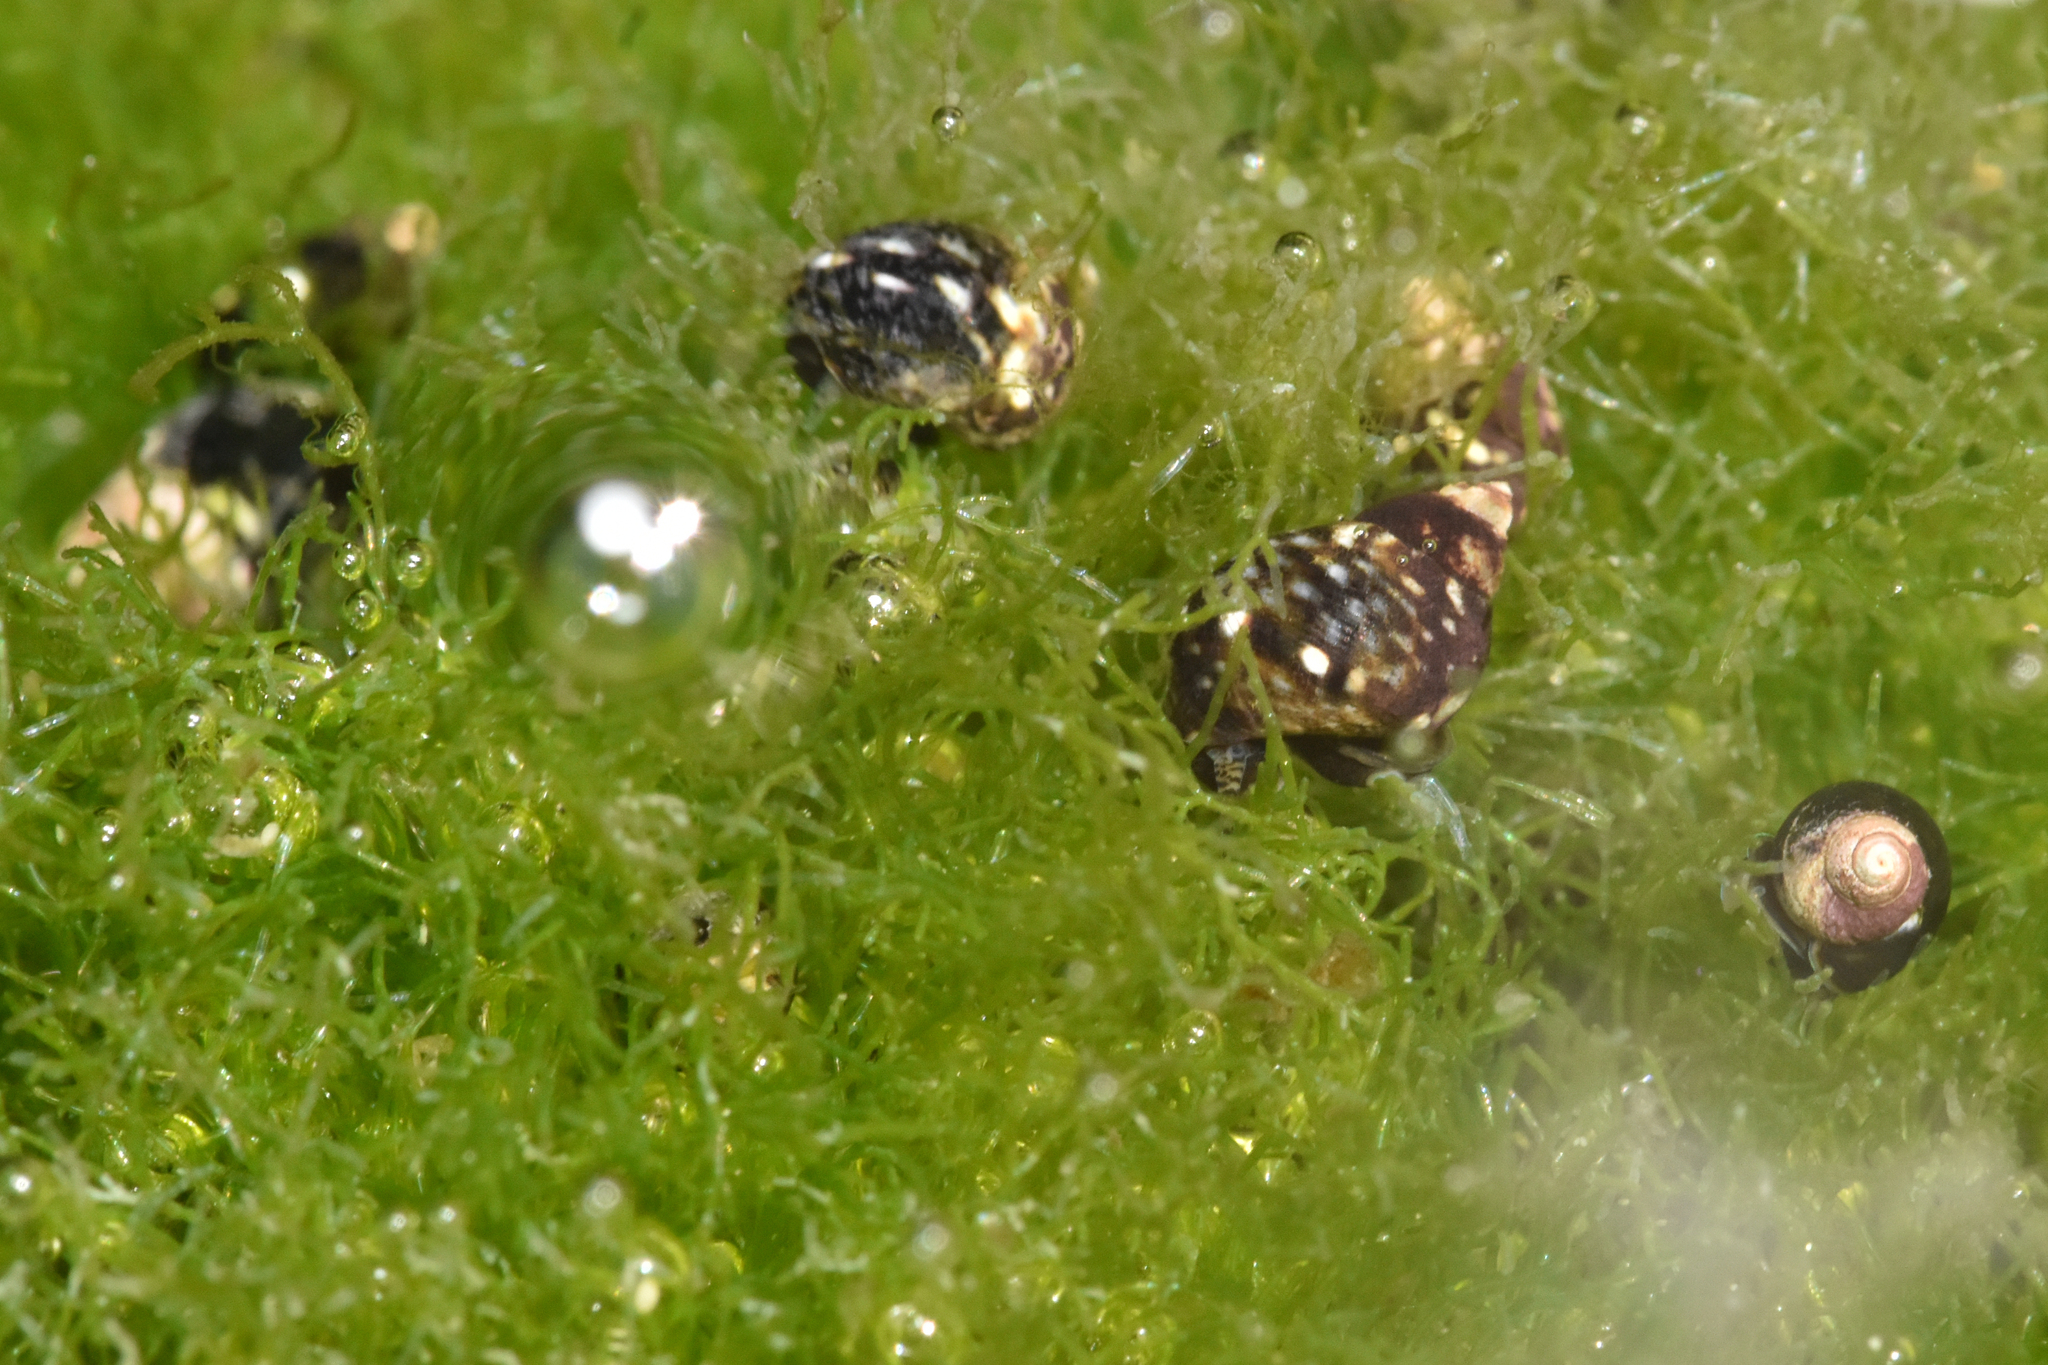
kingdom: Animalia
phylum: Mollusca
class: Gastropoda
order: Littorinimorpha
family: Littorinidae
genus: Littorina
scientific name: Littorina scutulata
